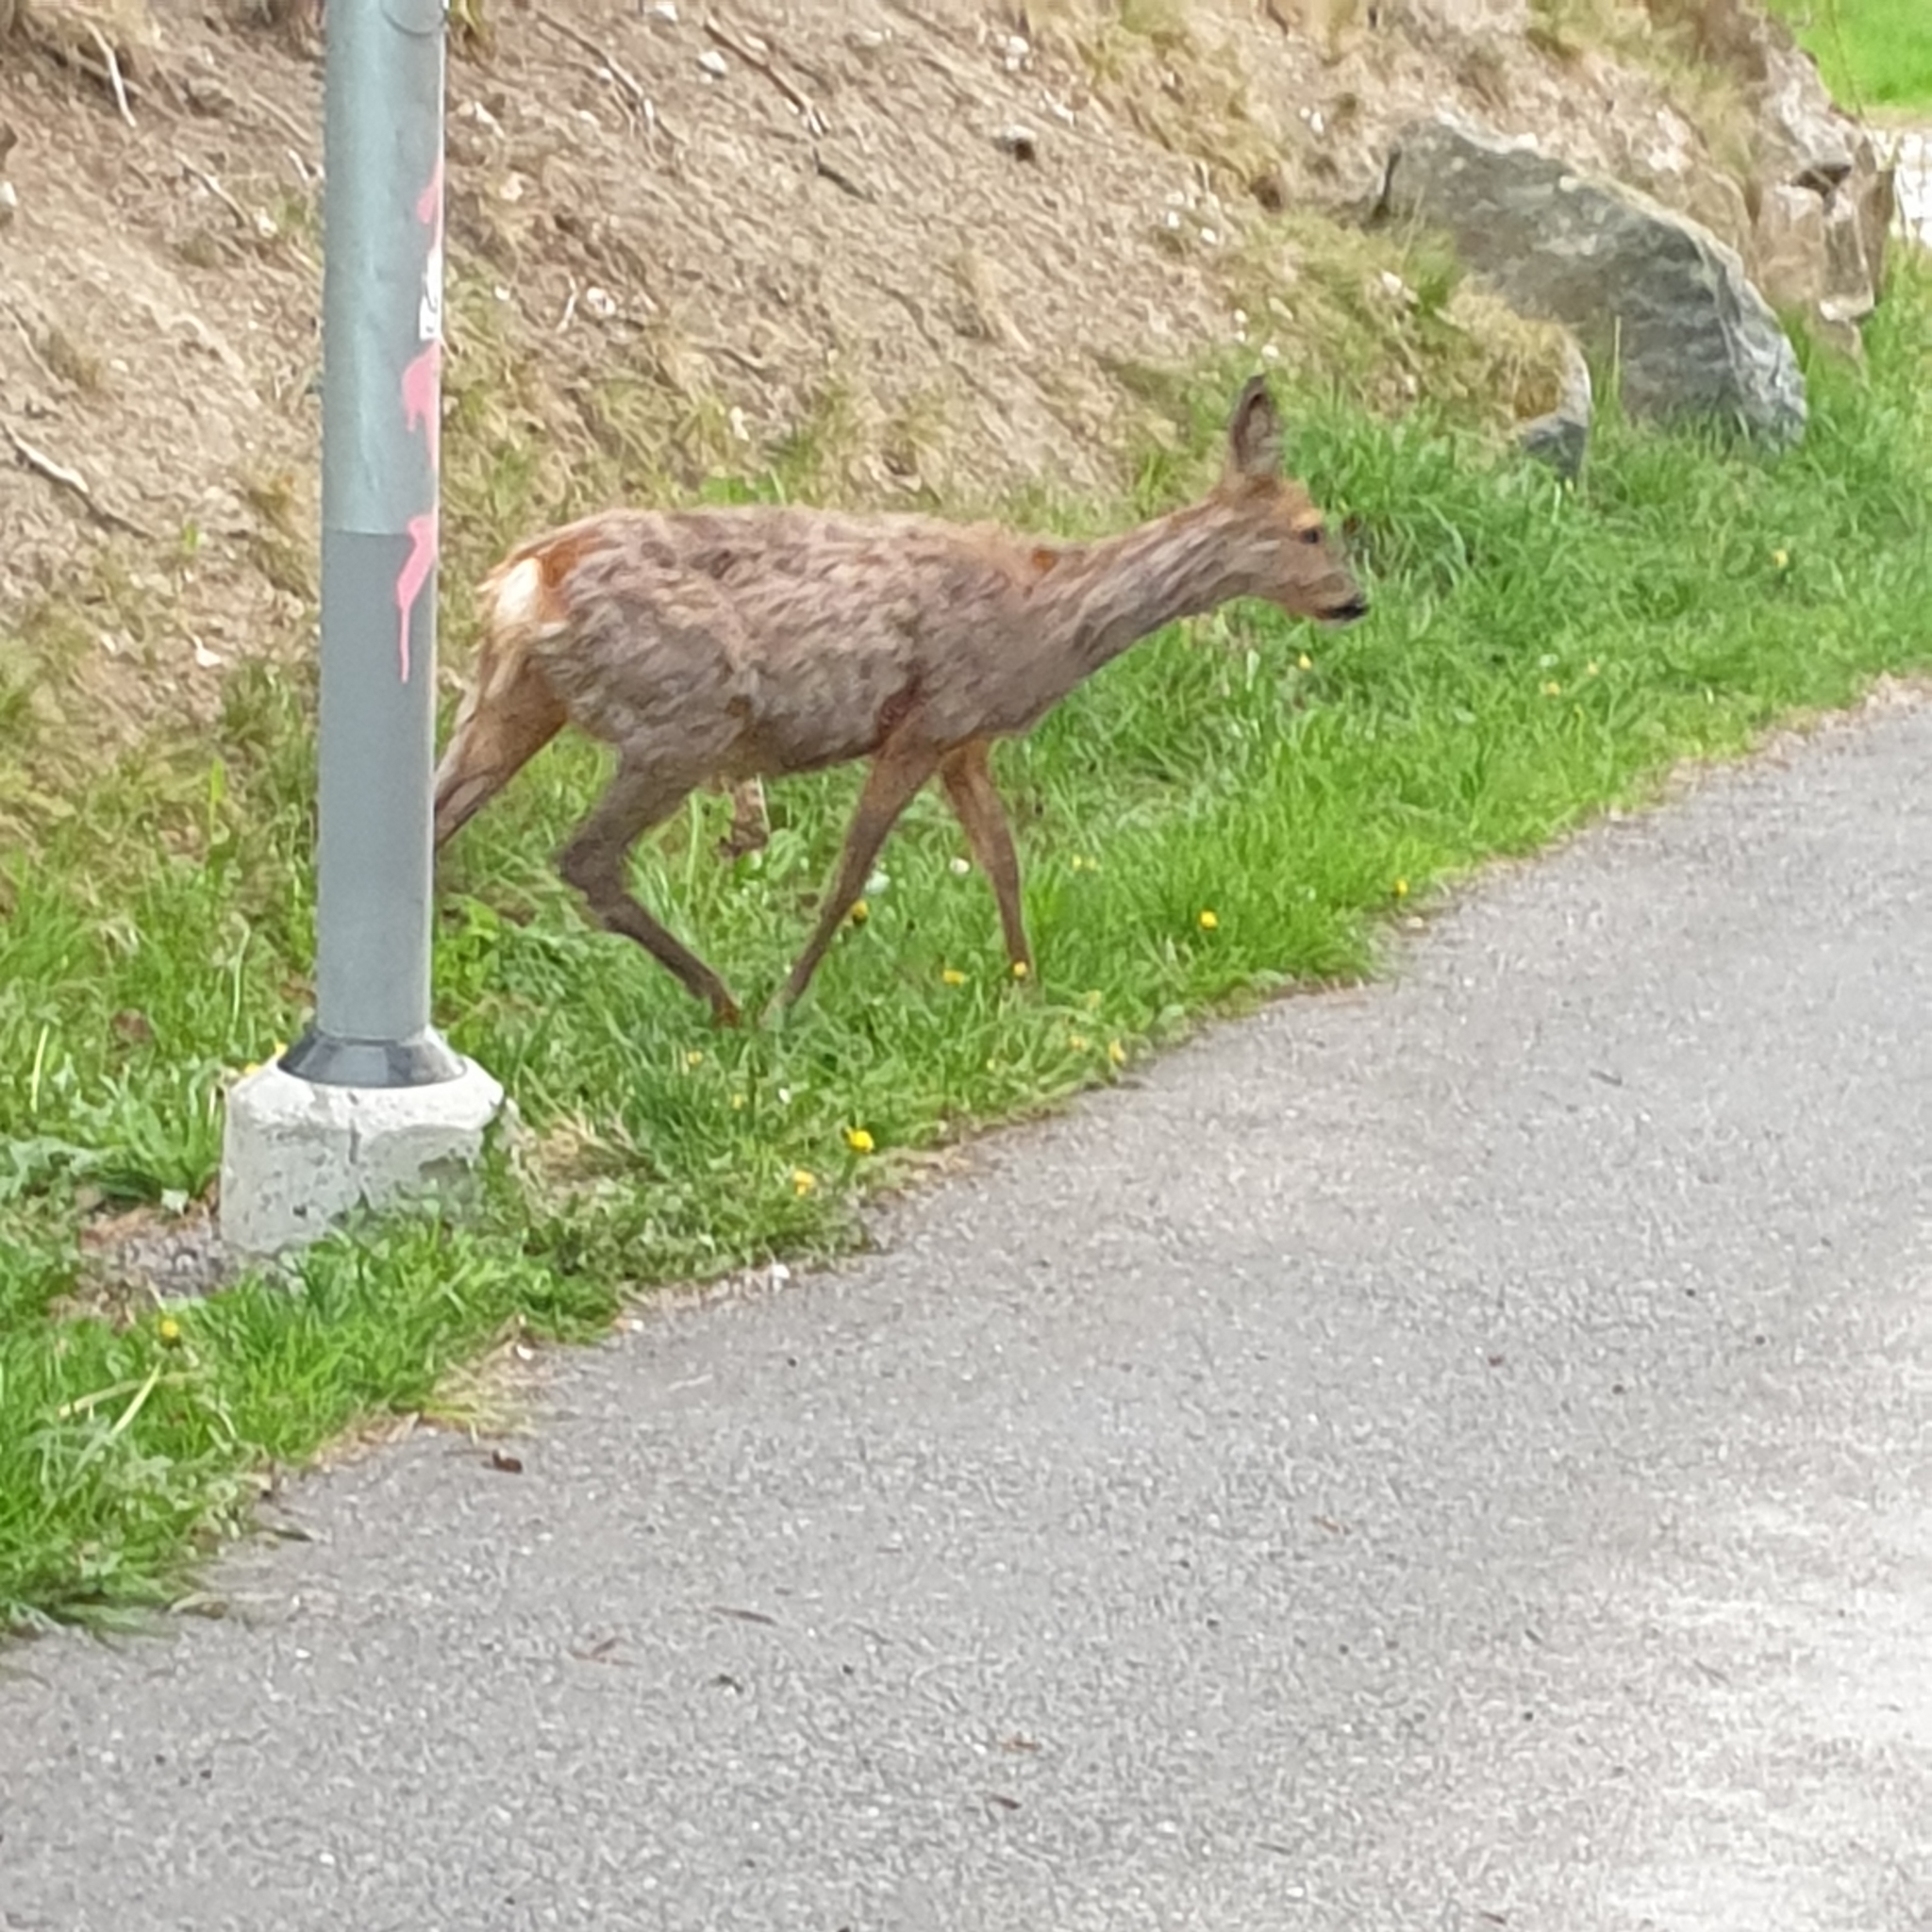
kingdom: Animalia
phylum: Chordata
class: Mammalia
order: Artiodactyla
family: Cervidae
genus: Capreolus
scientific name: Capreolus capreolus
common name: Western roe deer
